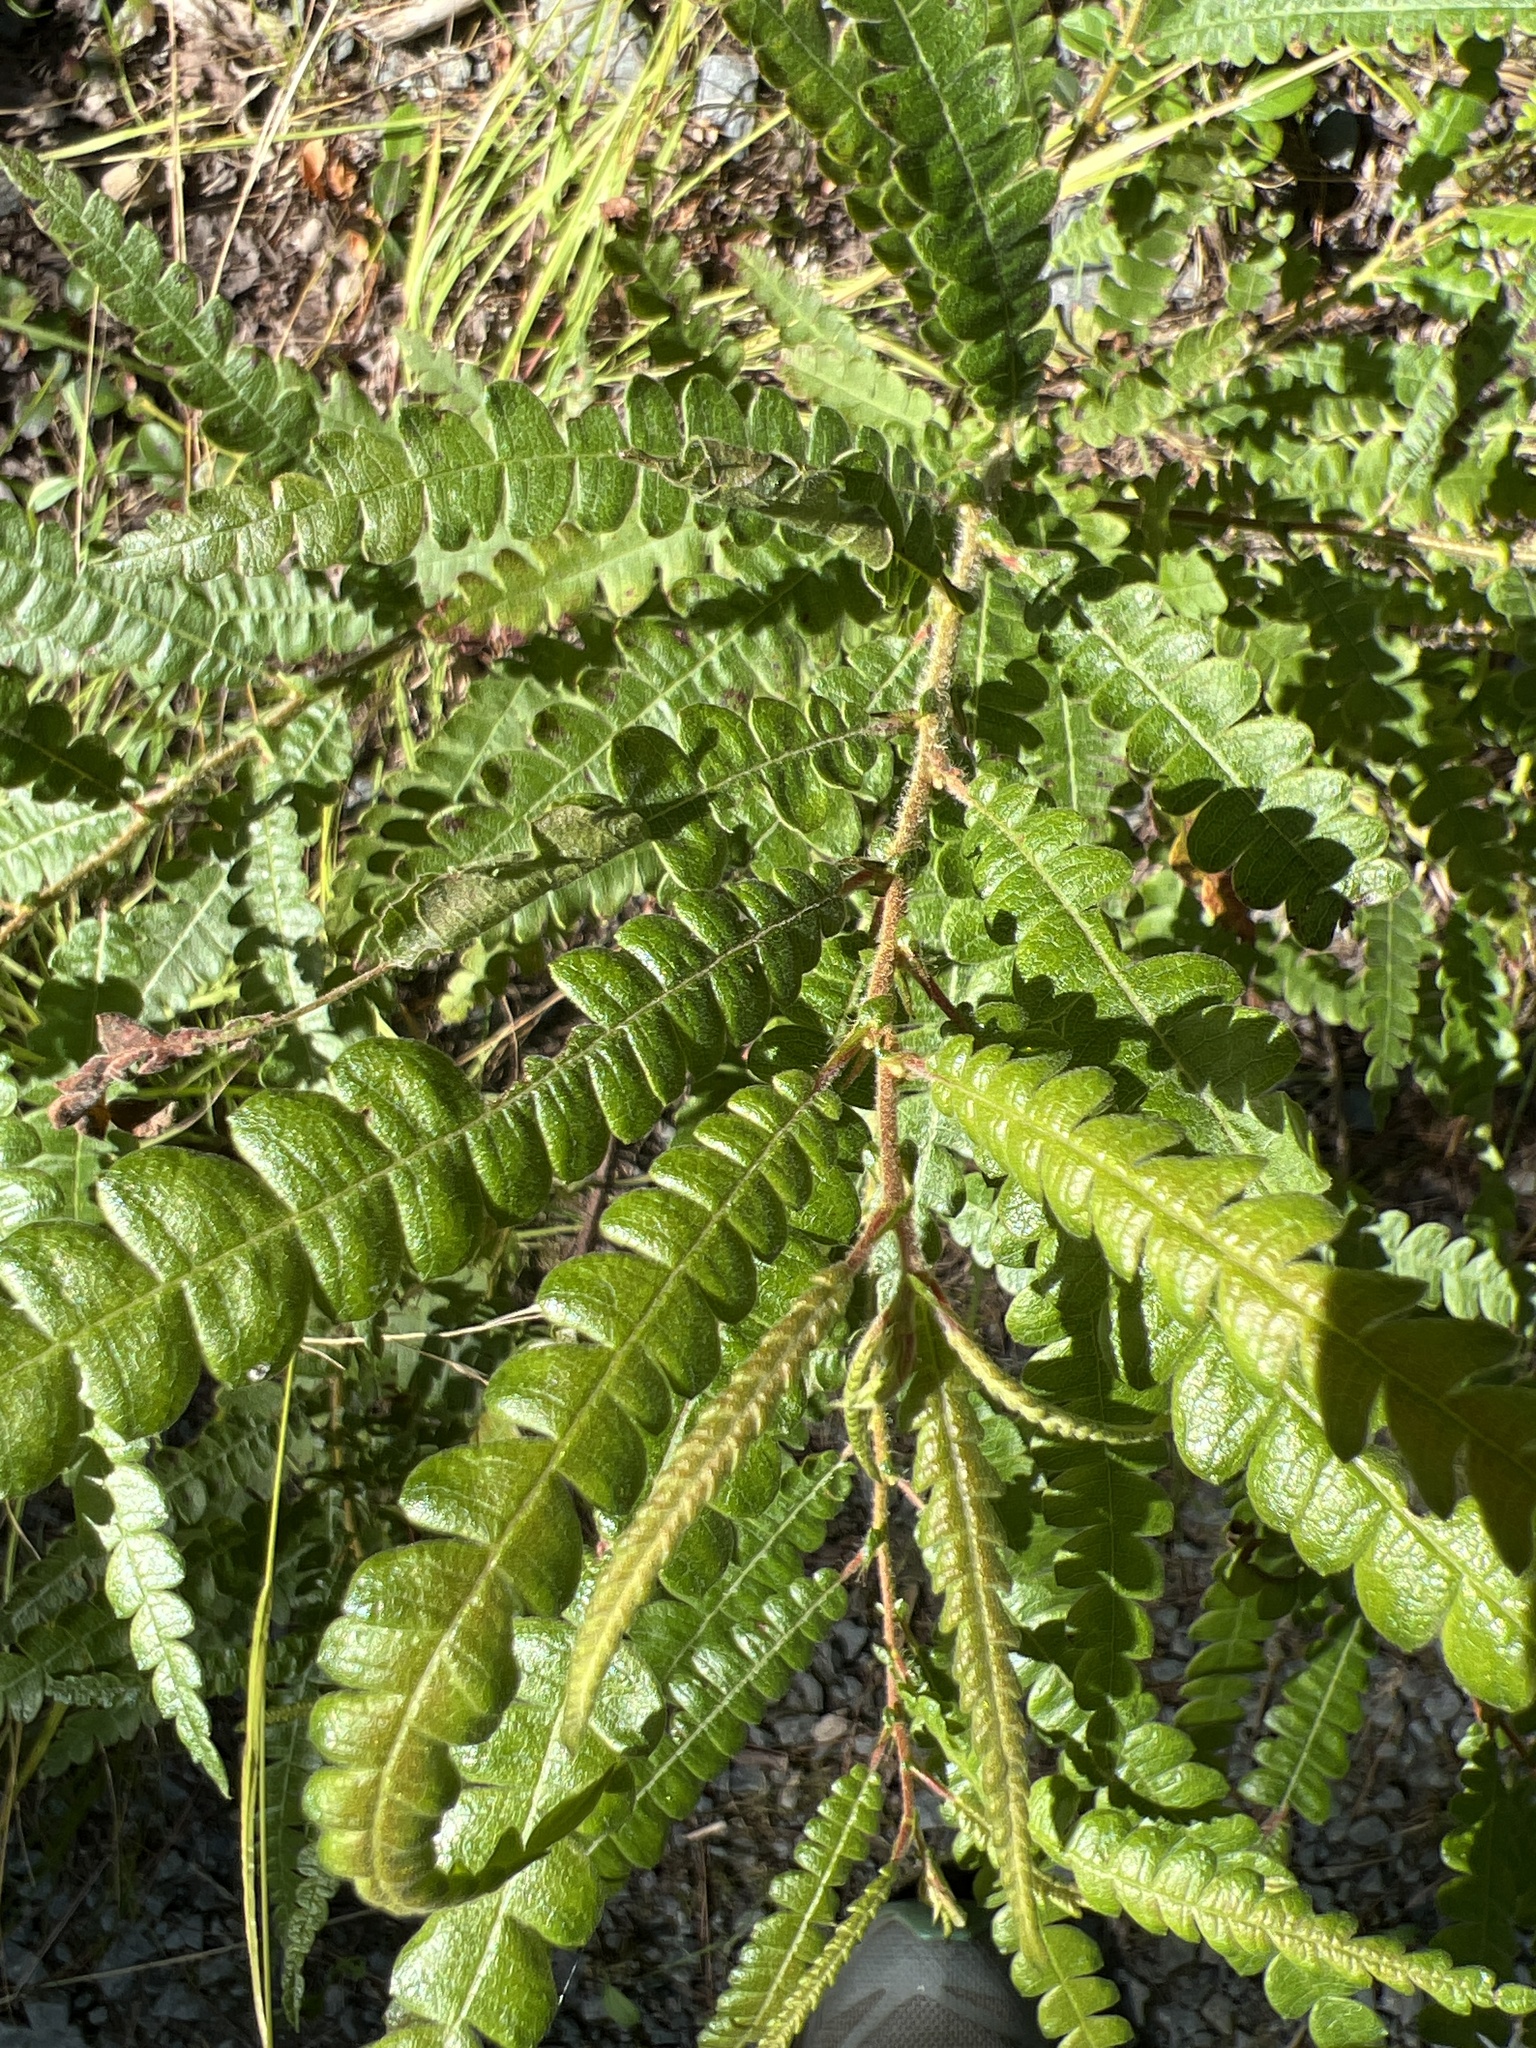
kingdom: Plantae
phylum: Tracheophyta
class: Magnoliopsida
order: Fagales
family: Myricaceae
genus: Comptonia
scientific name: Comptonia peregrina
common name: Sweet-fern
